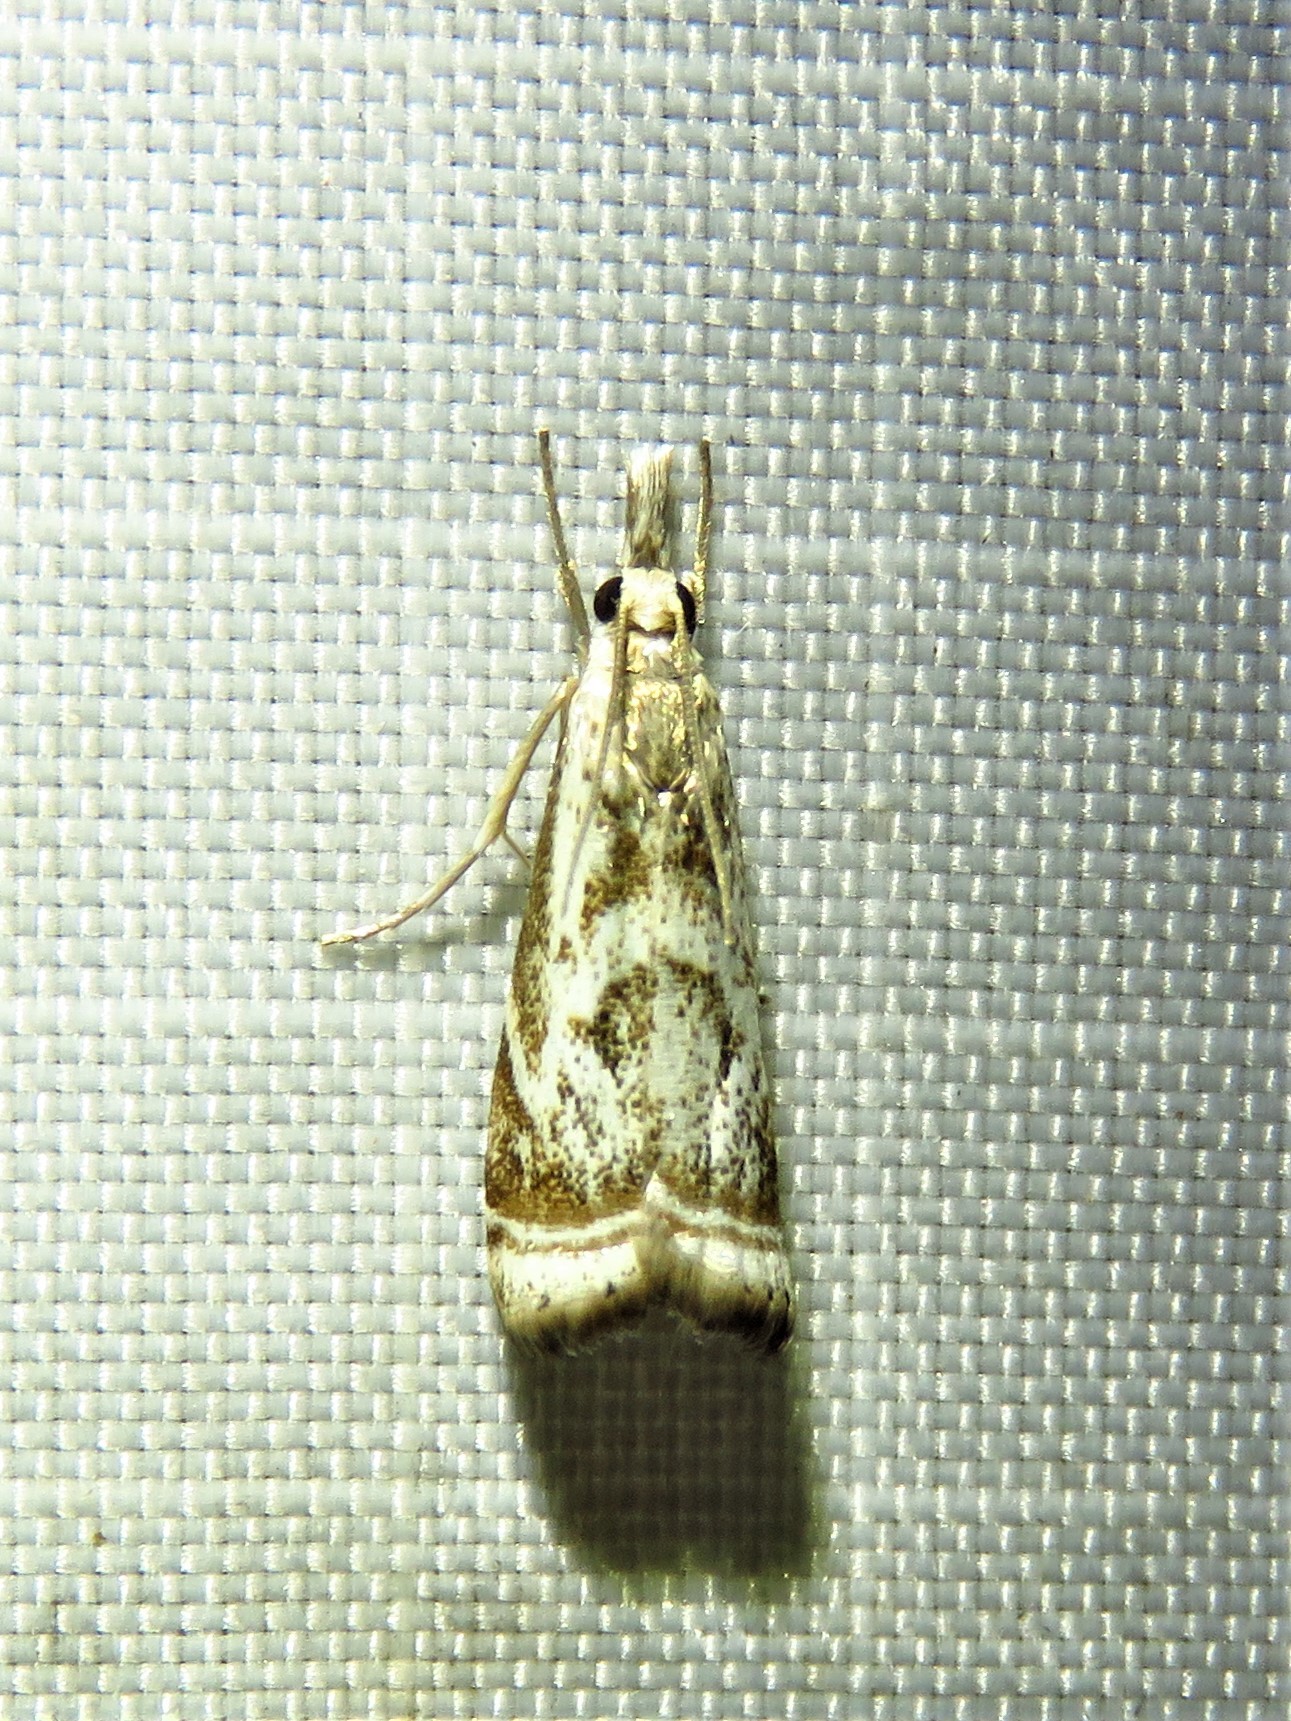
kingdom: Animalia
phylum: Arthropoda
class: Insecta
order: Lepidoptera
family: Crambidae
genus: Microcrambus
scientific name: Microcrambus elegans
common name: Elegant grass-veneer
